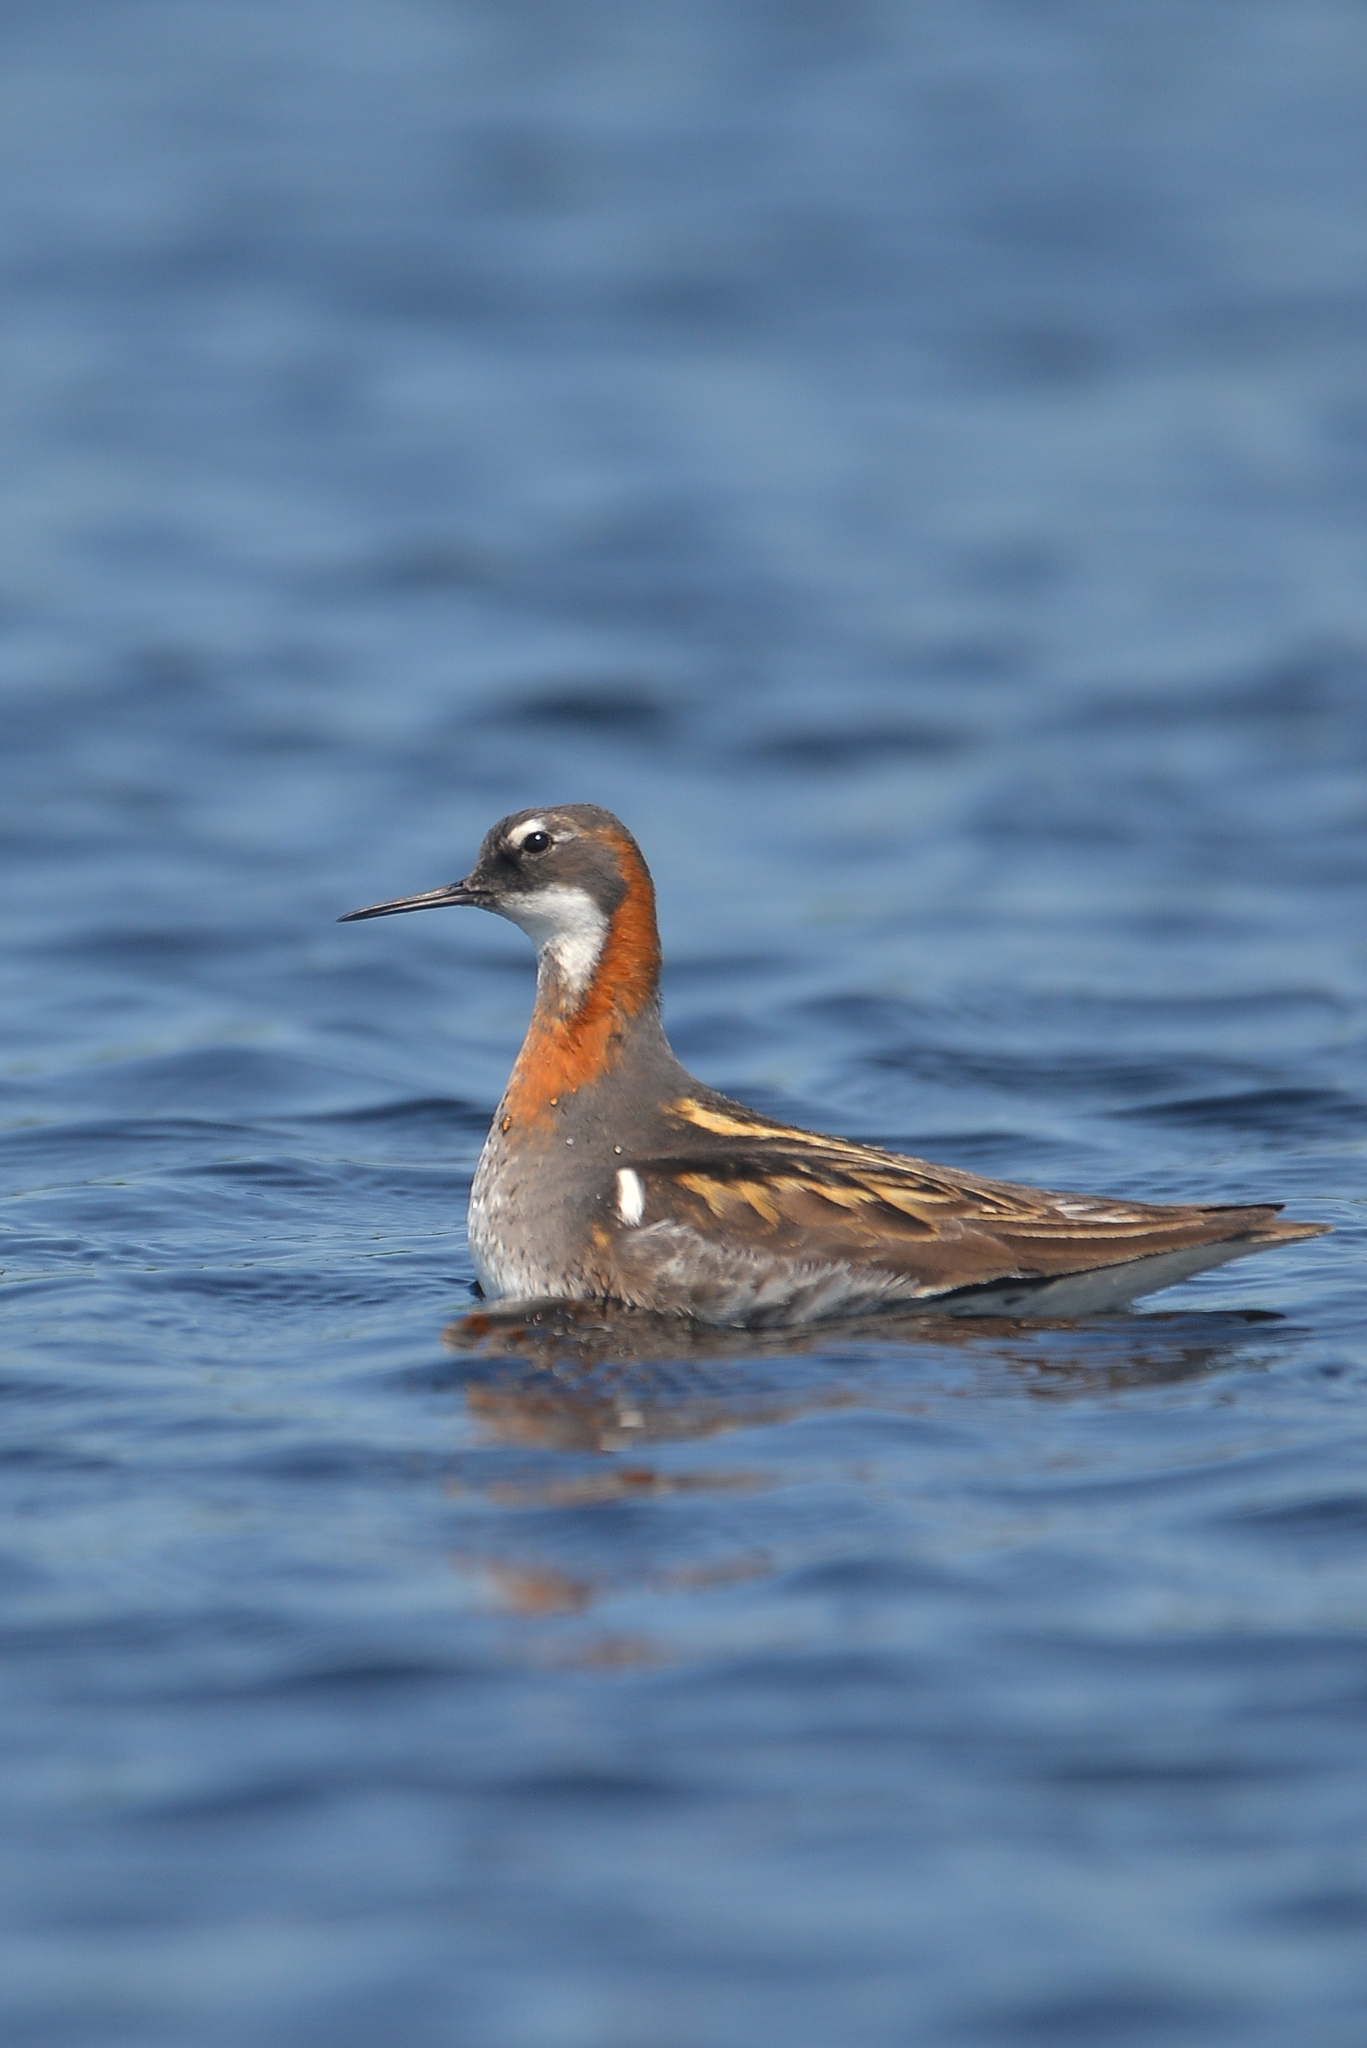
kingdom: Animalia
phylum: Chordata
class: Aves
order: Charadriiformes
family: Scolopacidae
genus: Phalaropus
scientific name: Phalaropus lobatus
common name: Red-necked phalarope
